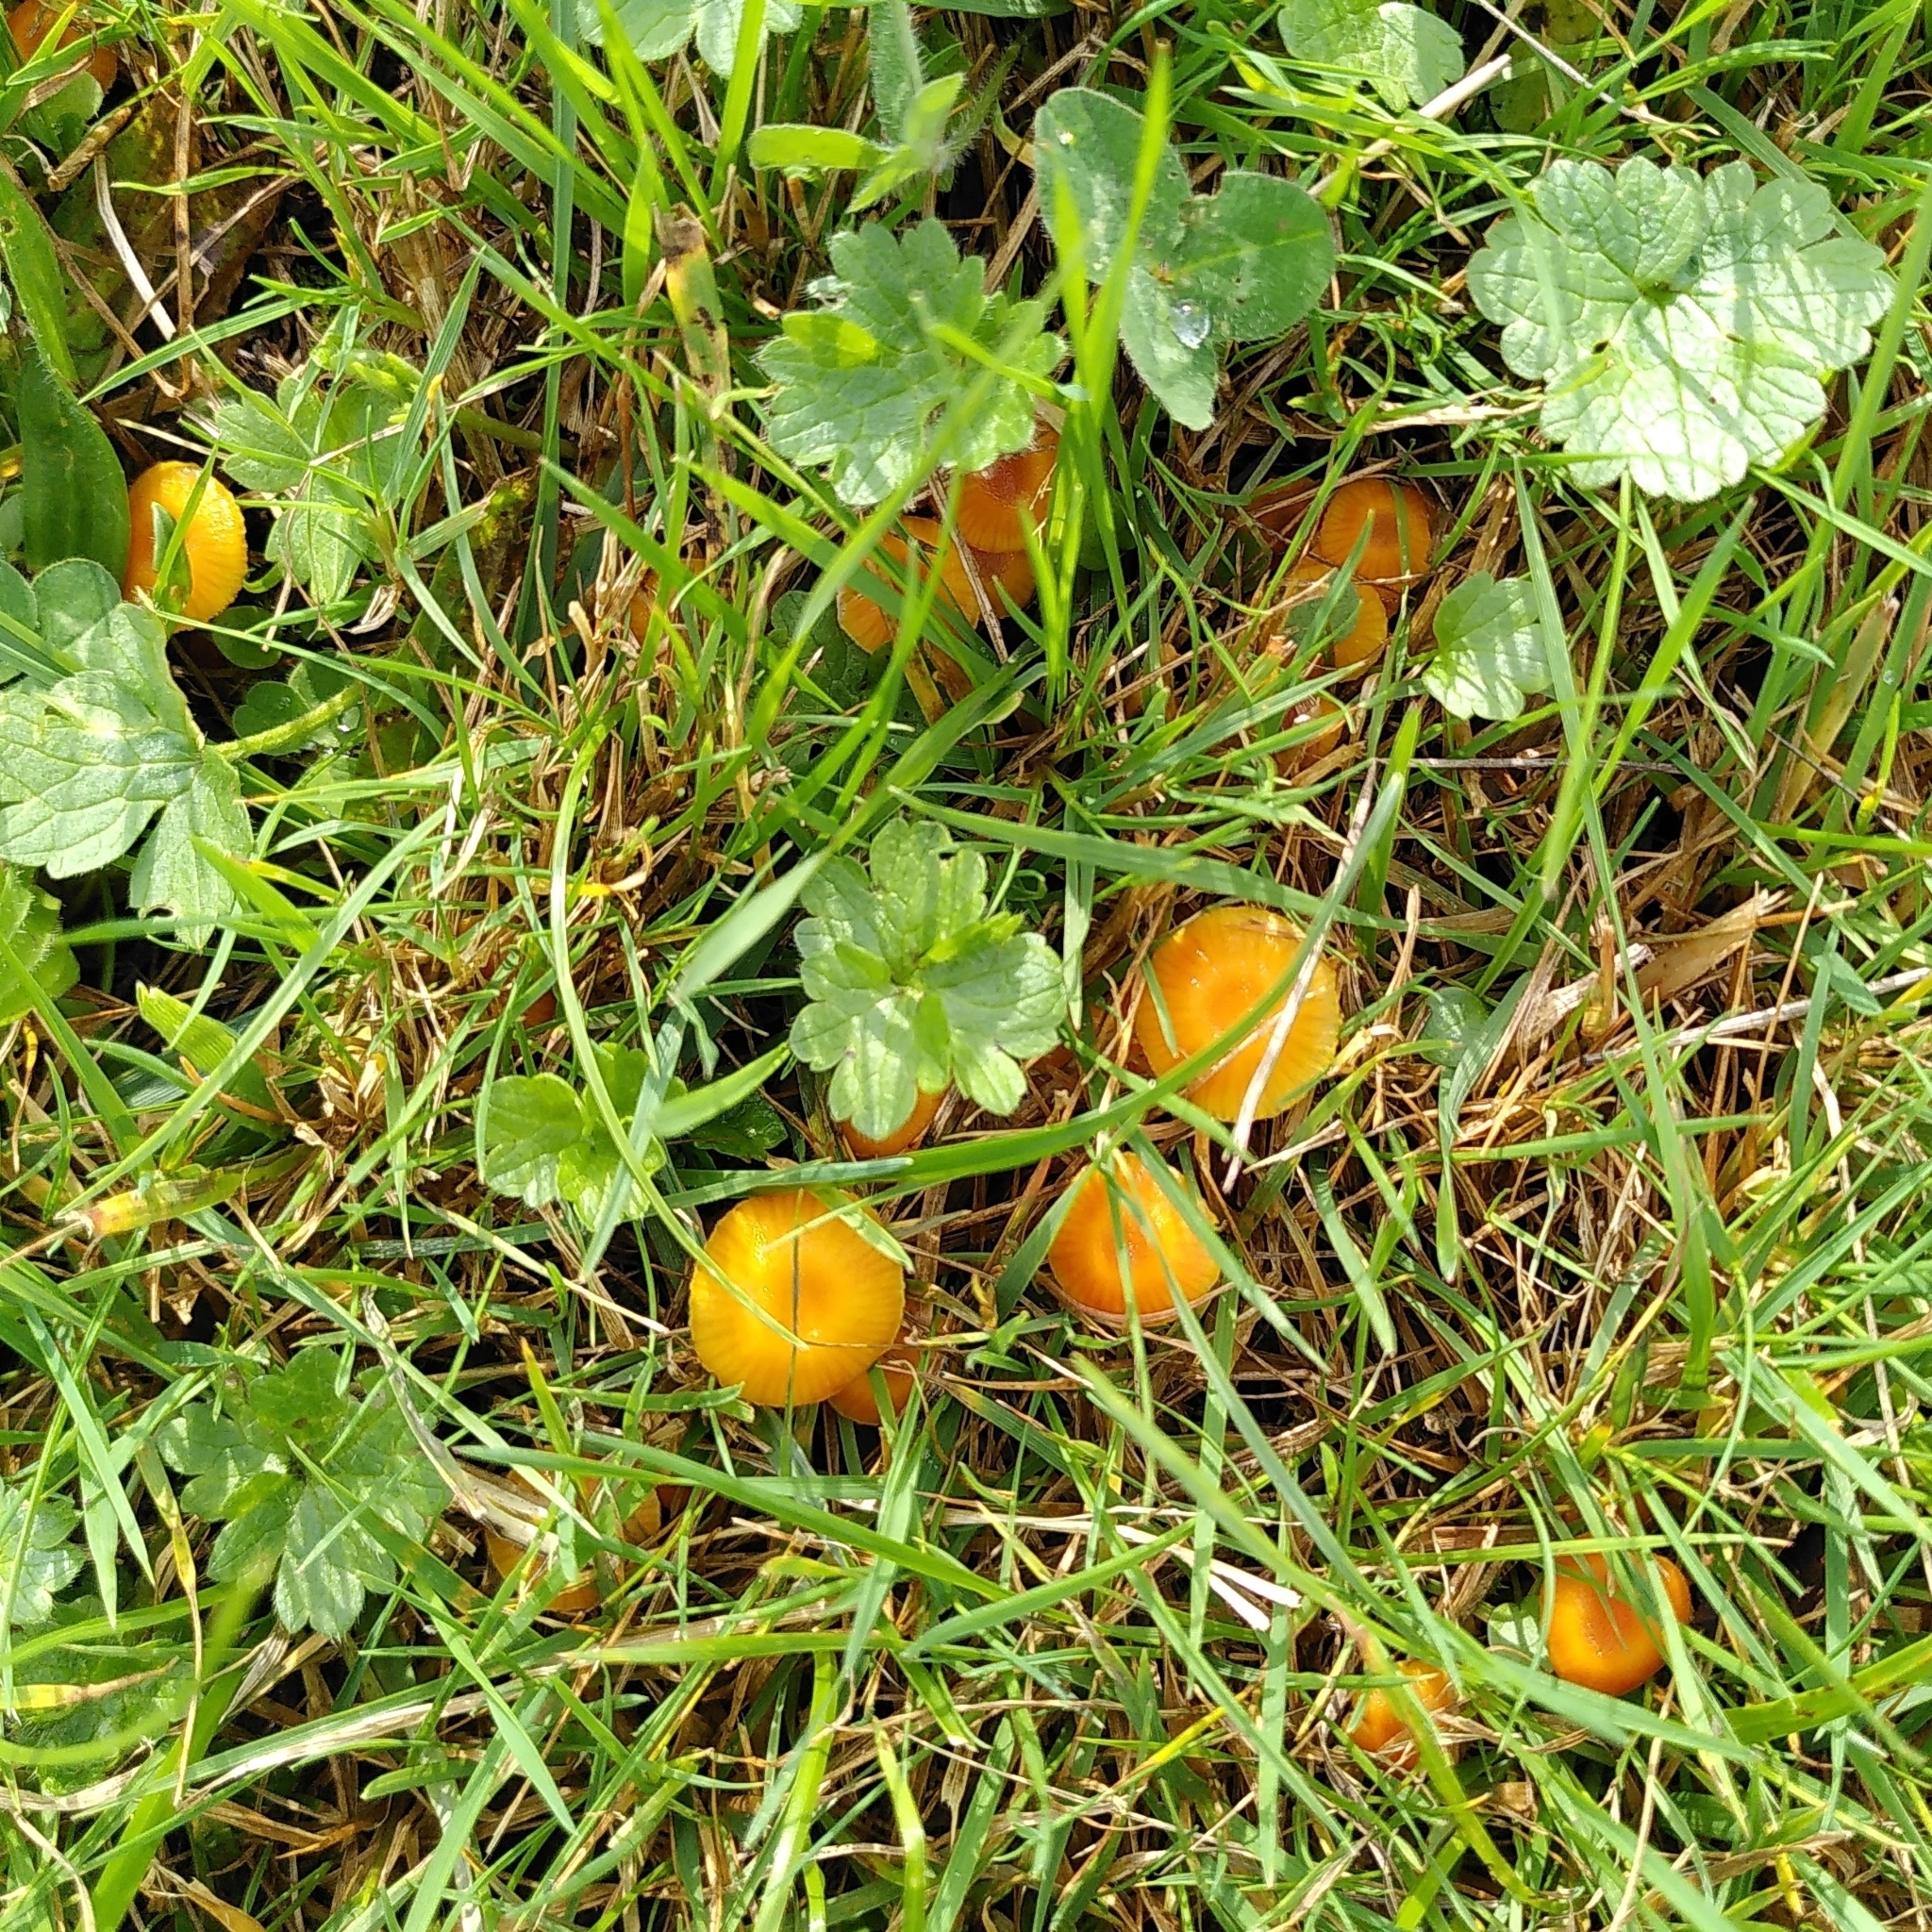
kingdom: Fungi
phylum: Basidiomycota
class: Agaricomycetes
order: Agaricales
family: Hygrophoraceae
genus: Hygrocybe
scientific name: Hygrocybe insipida
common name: Spangle waxcap
